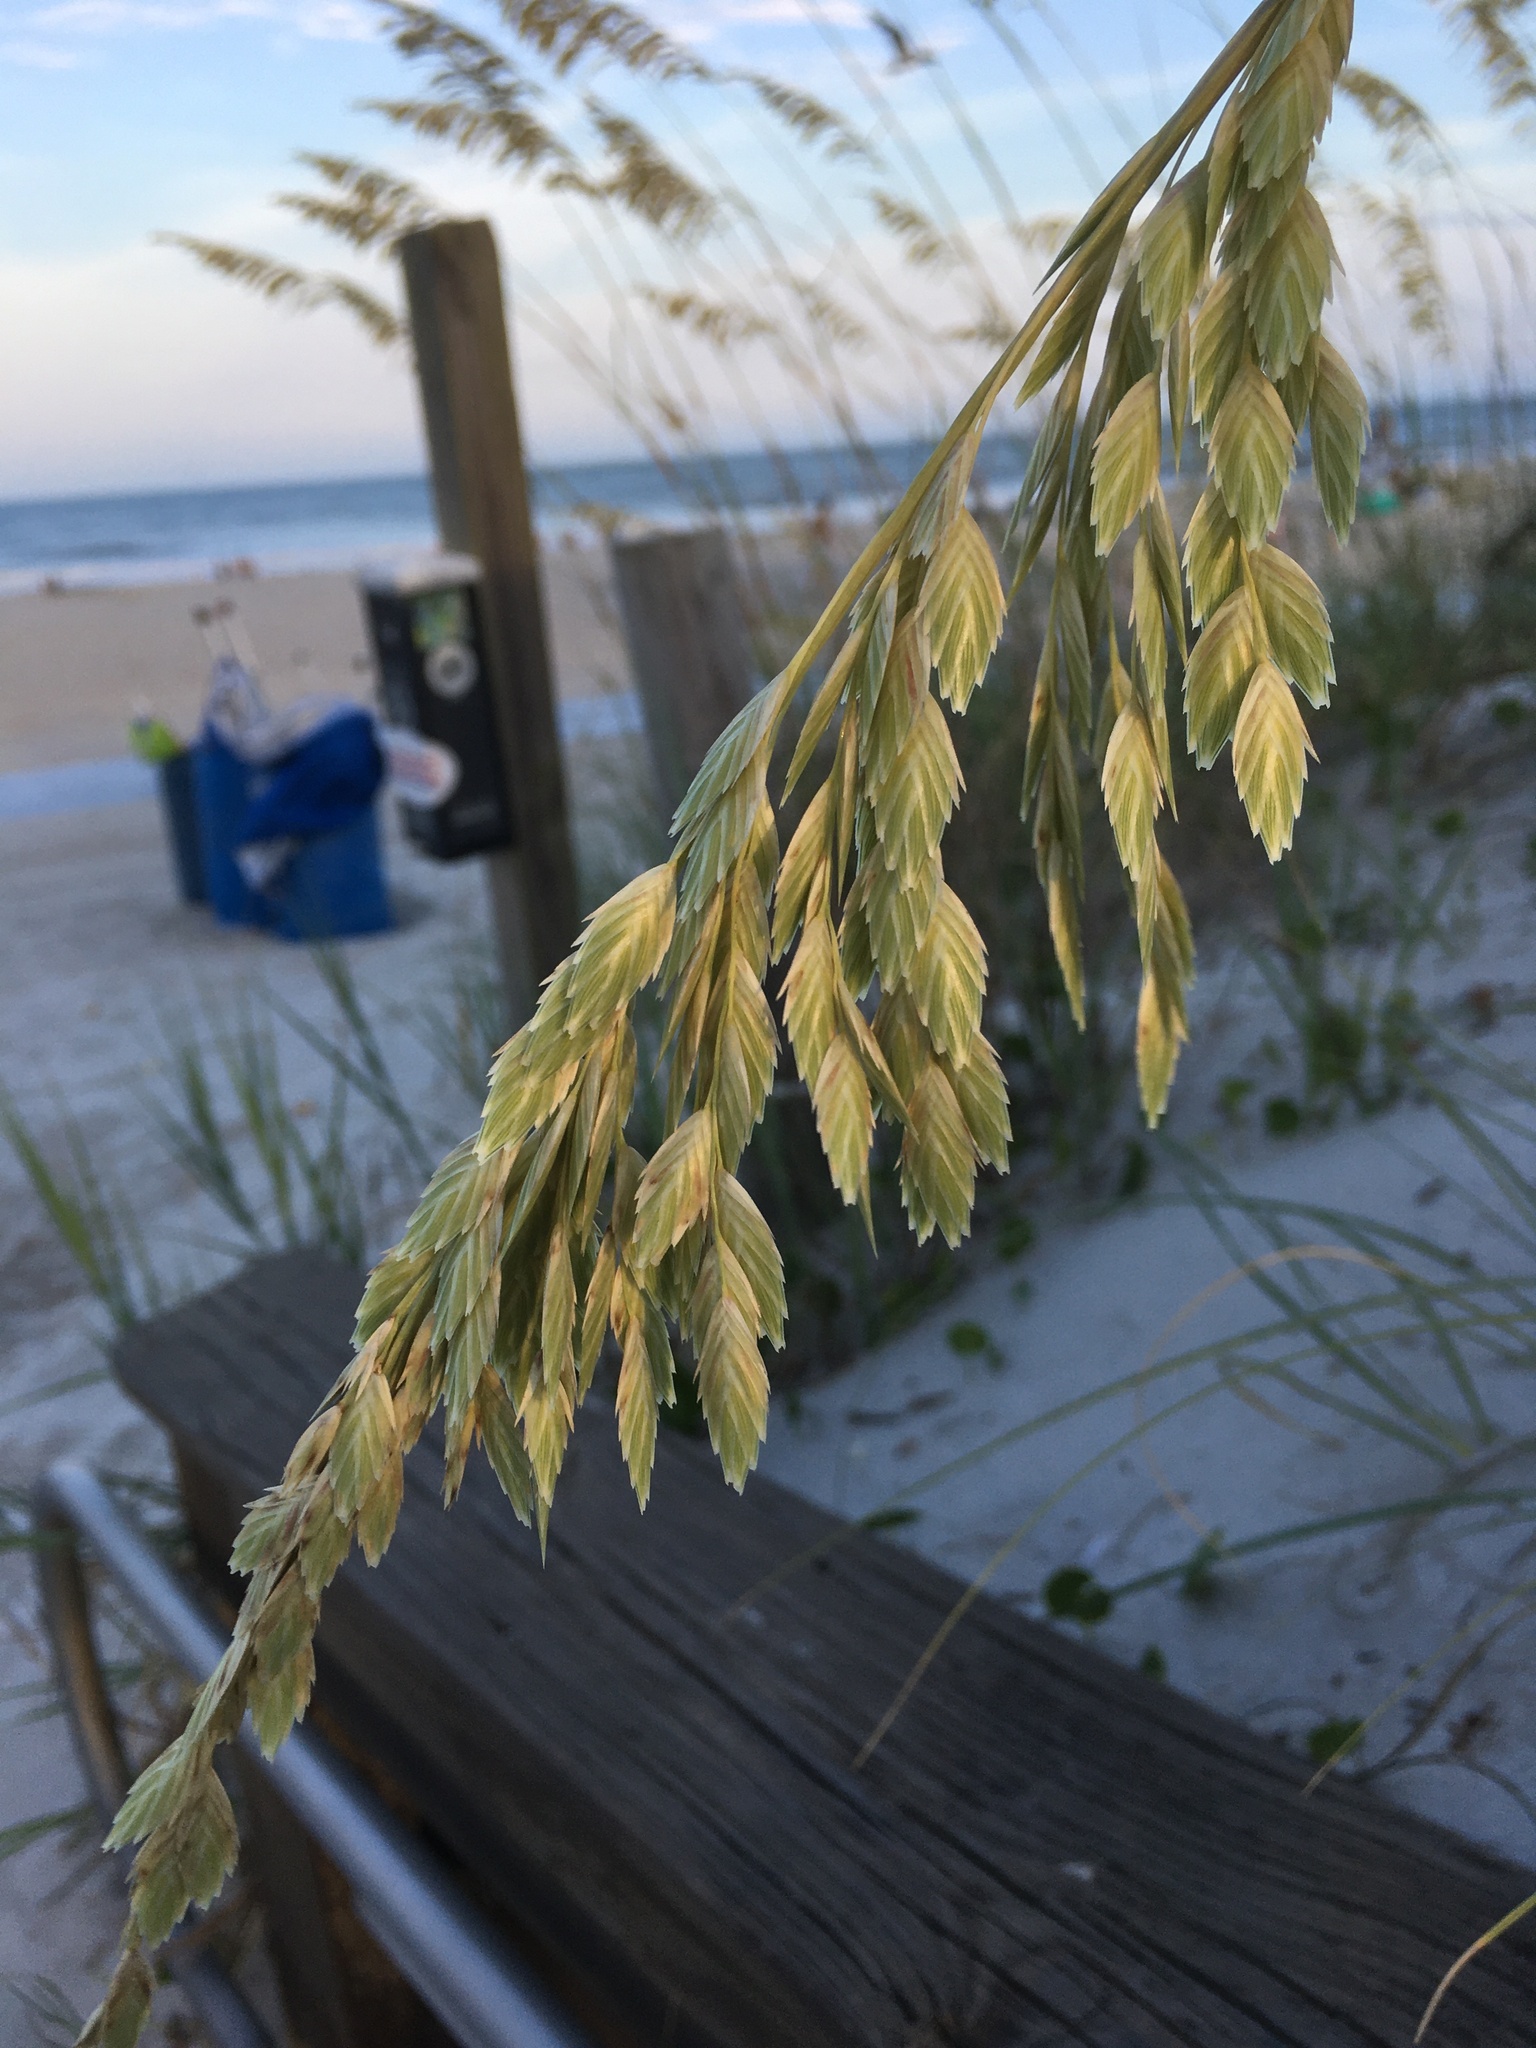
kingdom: Plantae
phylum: Tracheophyta
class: Liliopsida
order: Poales
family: Poaceae
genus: Uniola
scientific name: Uniola paniculata
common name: Seaside-oats
